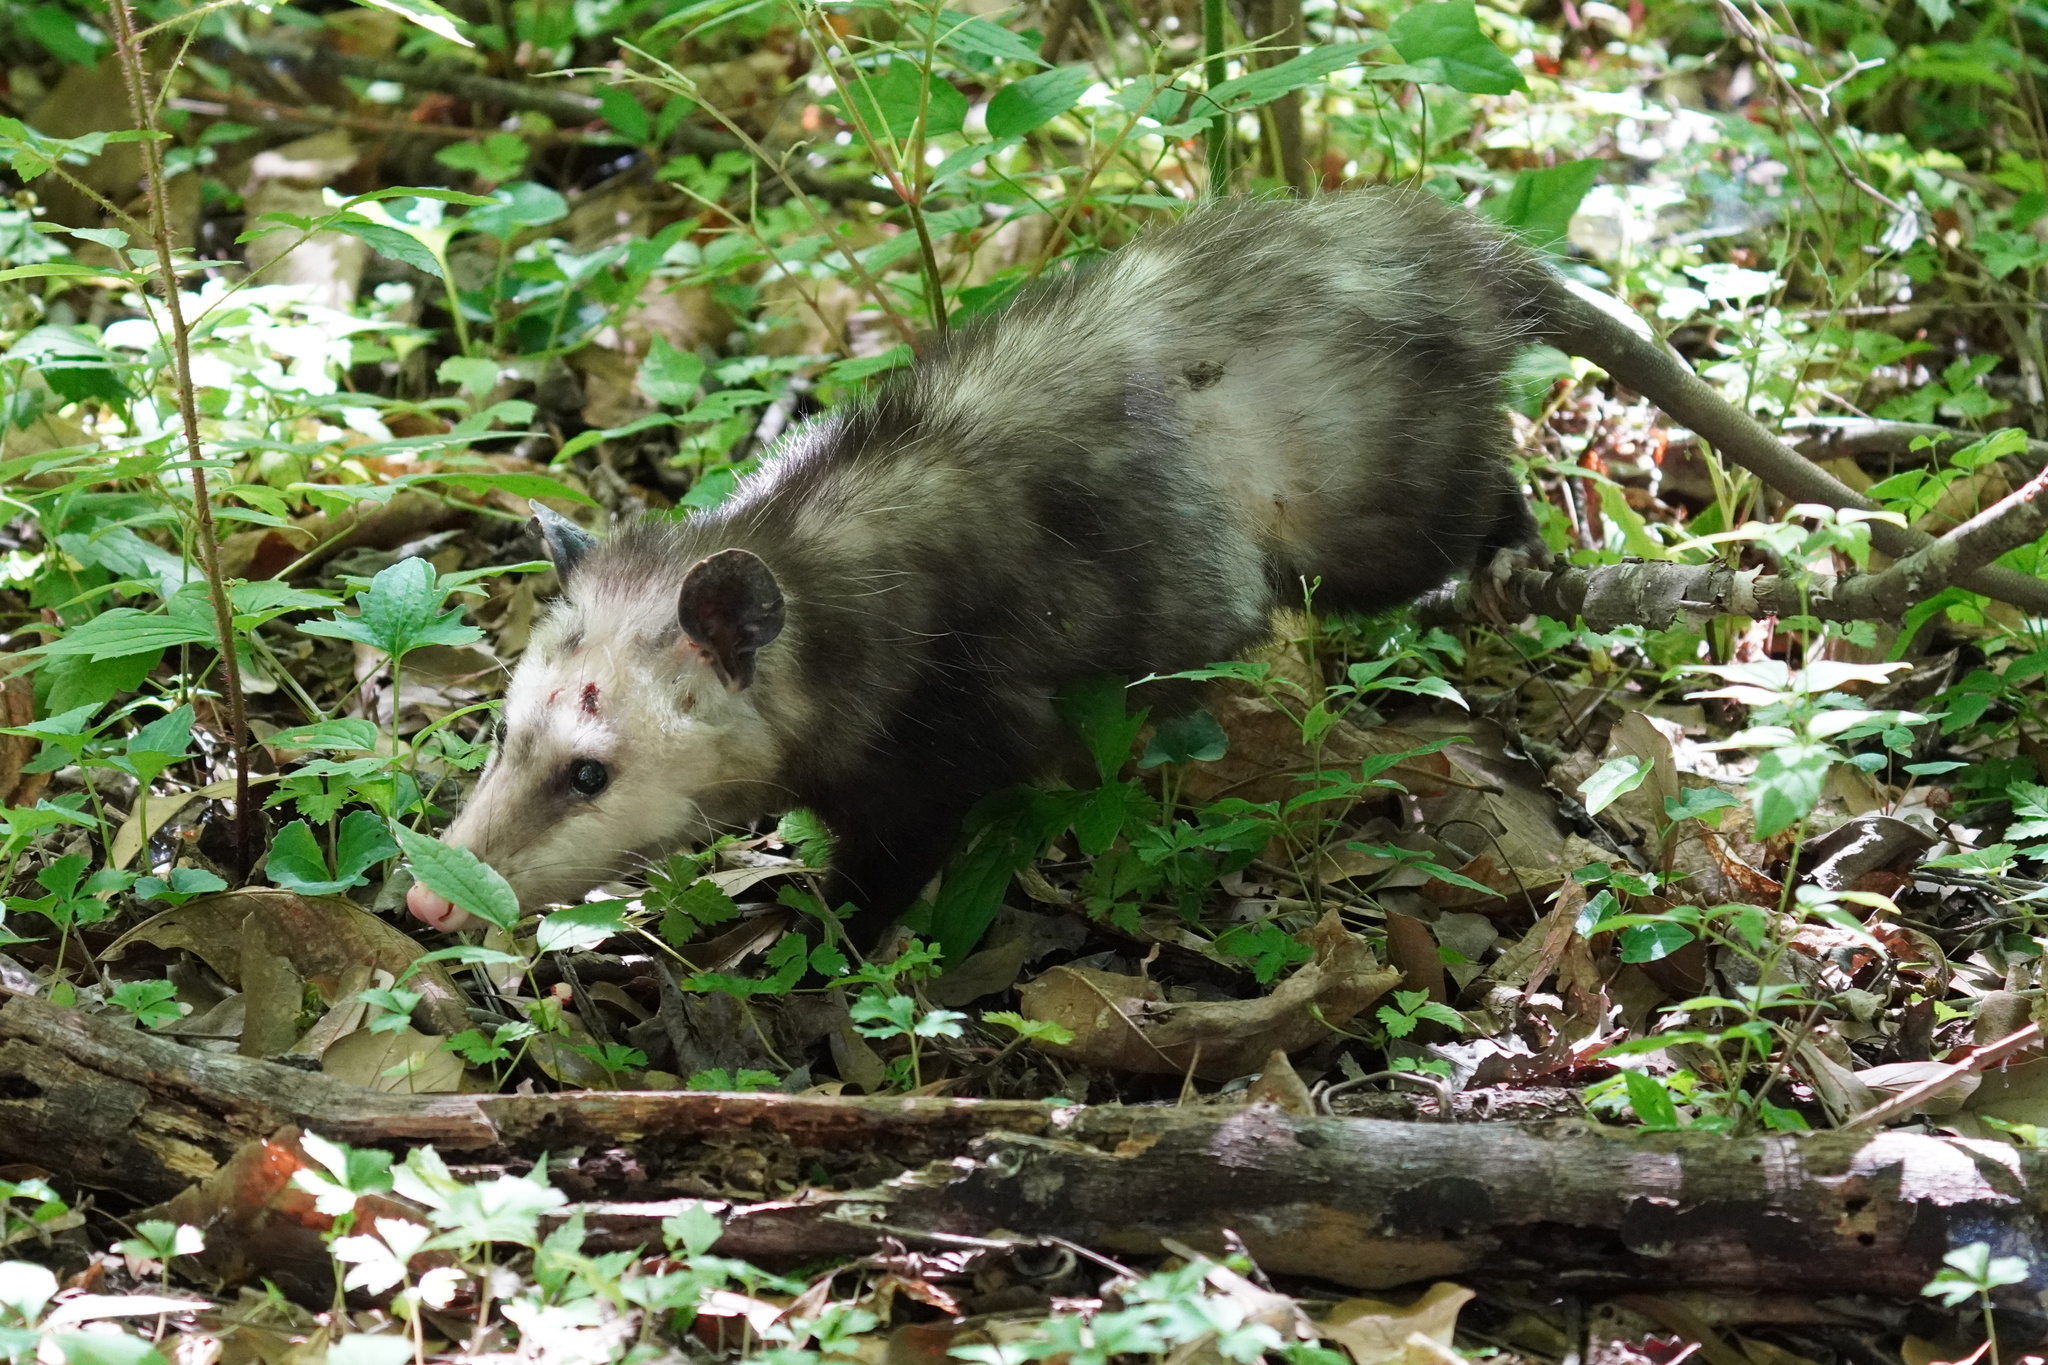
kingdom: Animalia
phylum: Chordata
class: Mammalia
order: Didelphimorphia
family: Didelphidae
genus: Didelphis
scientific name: Didelphis virginiana
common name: Virginia opossum
